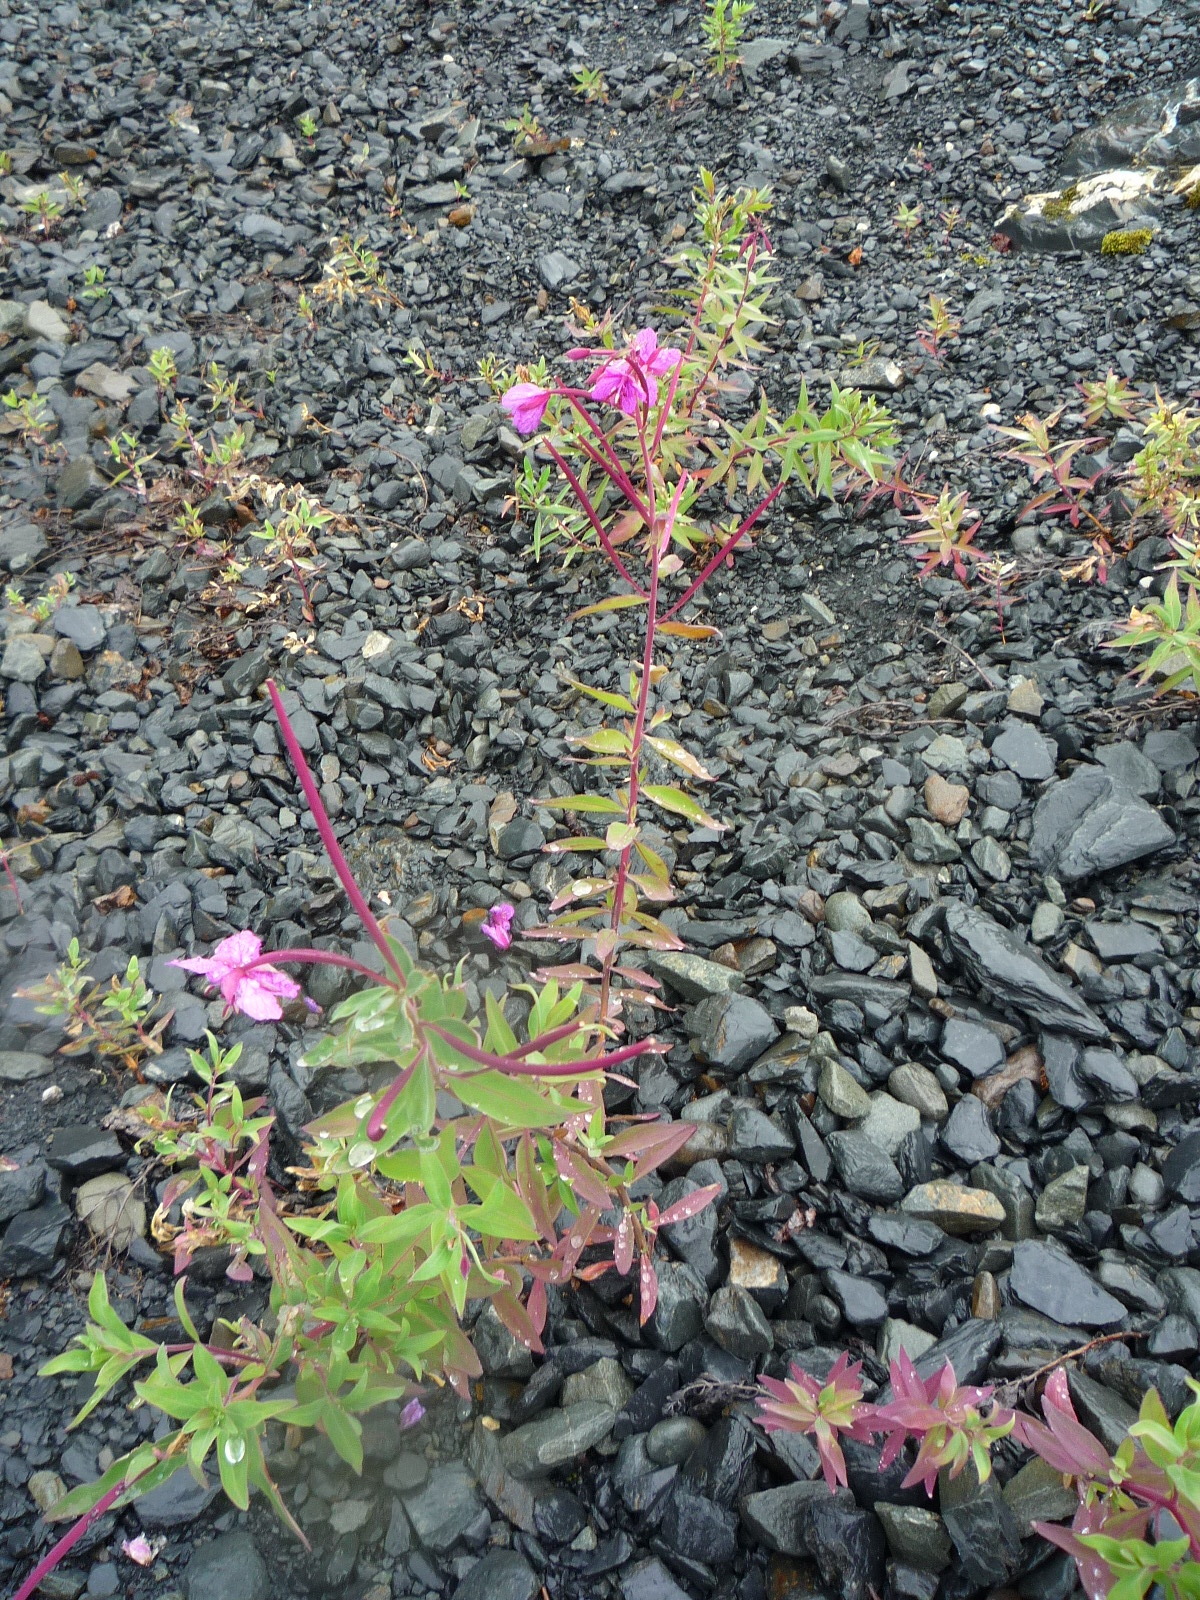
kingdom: Plantae
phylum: Tracheophyta
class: Magnoliopsida
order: Myrtales
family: Onagraceae
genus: Chamaenerion
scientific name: Chamaenerion latifolium
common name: Dwarf fireweed
